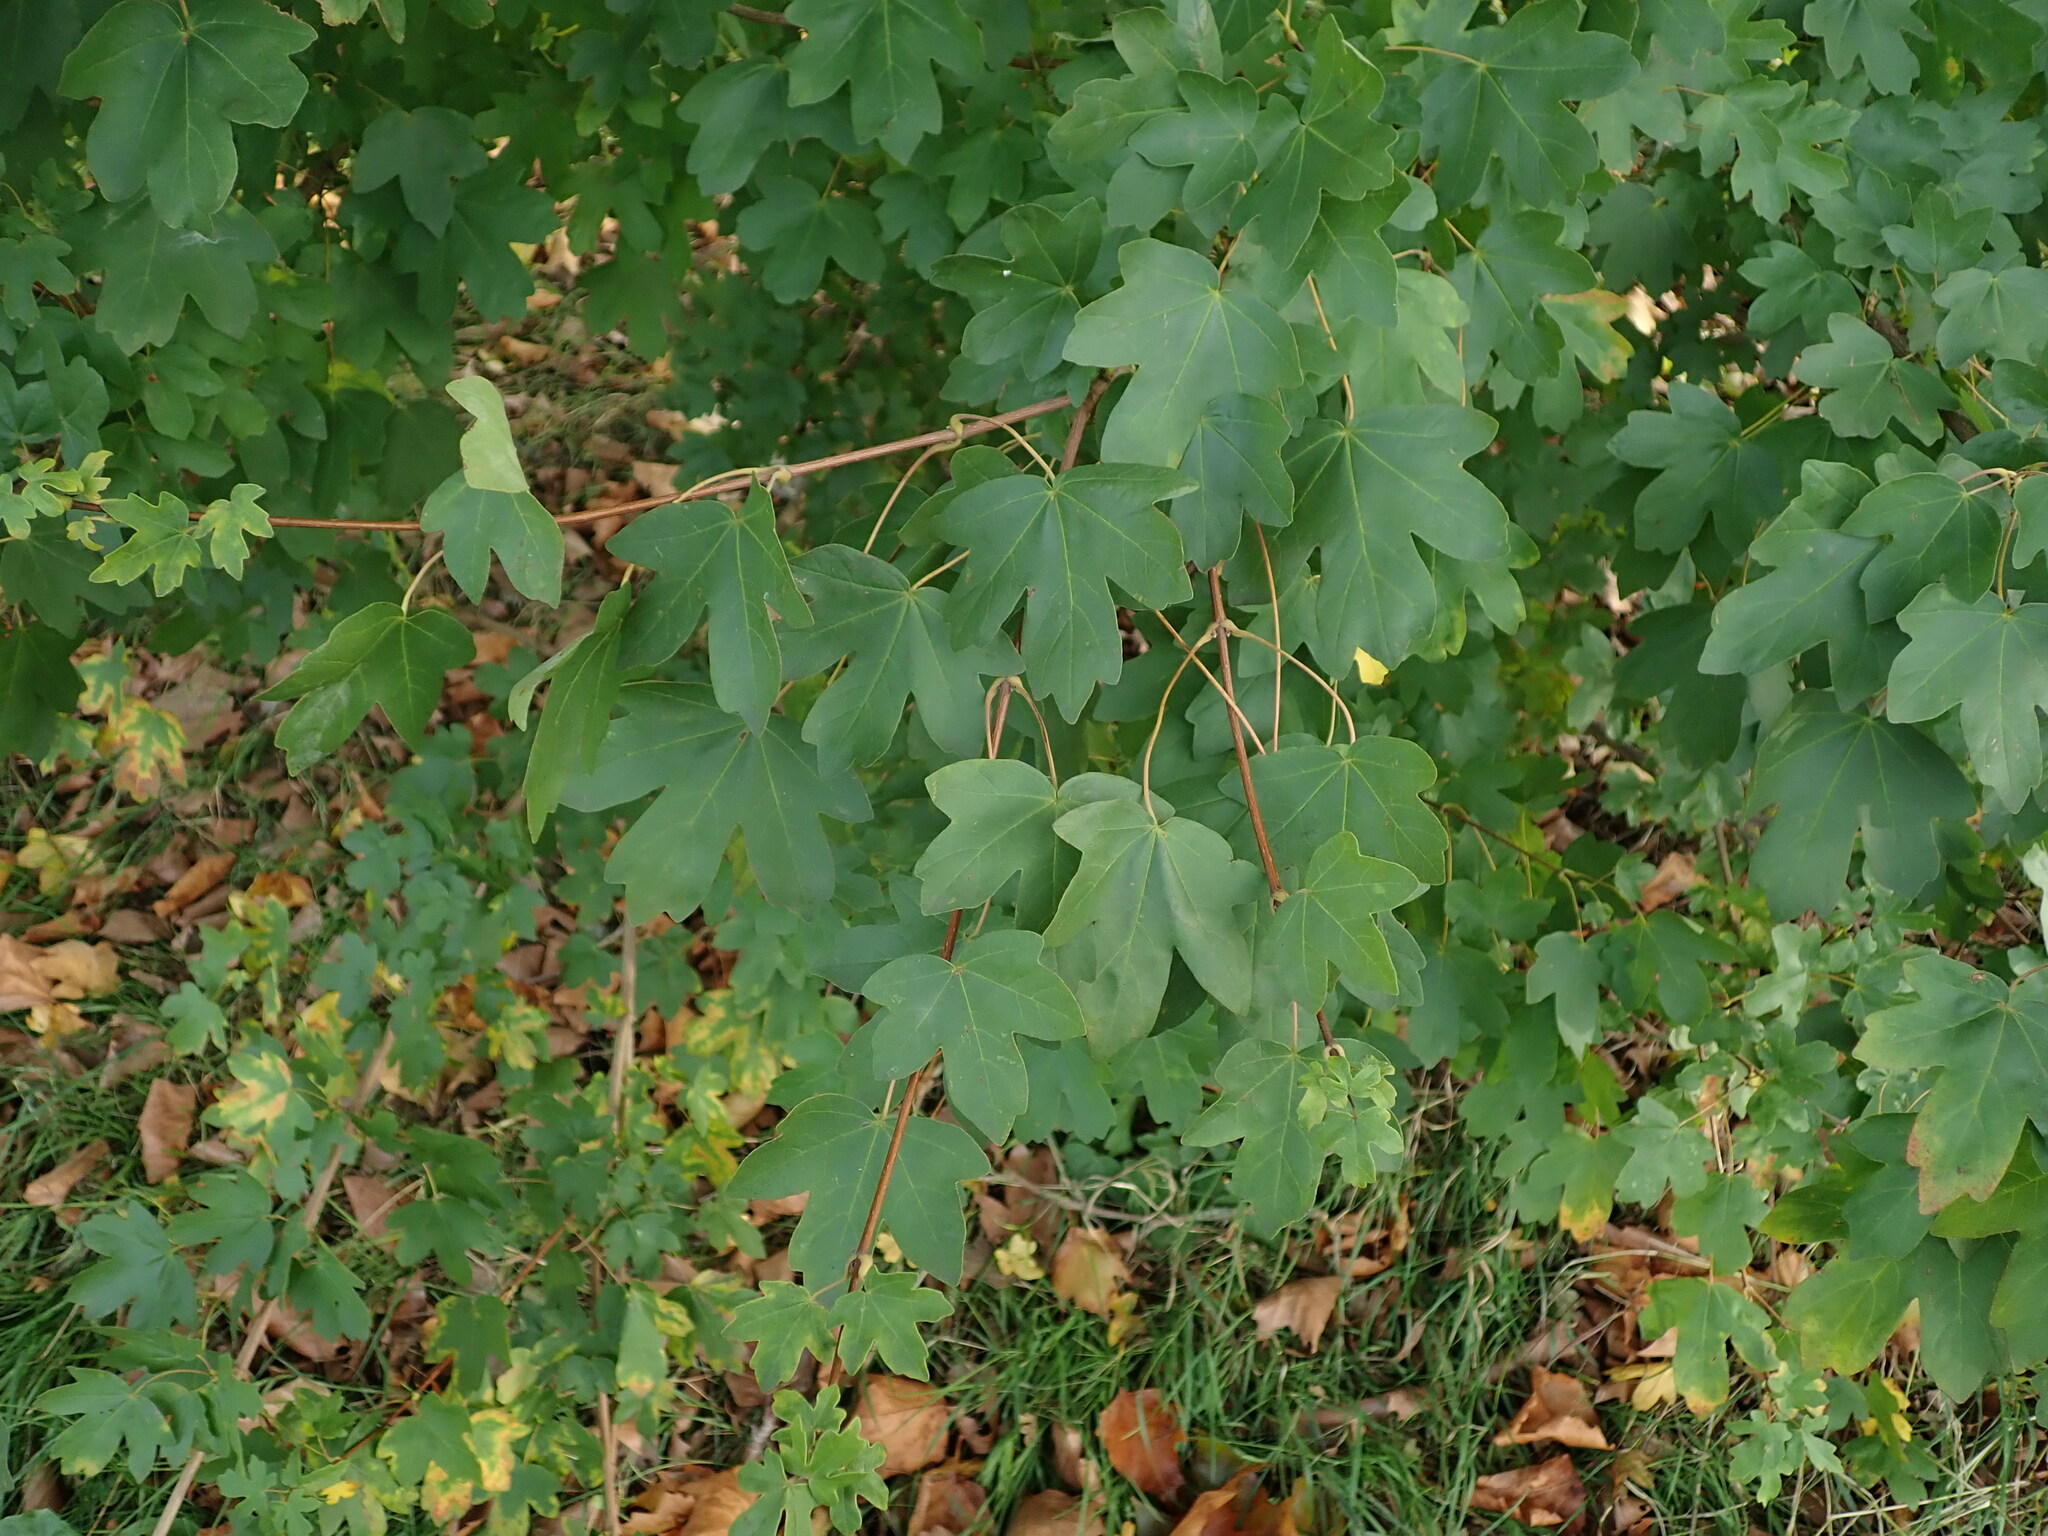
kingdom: Plantae
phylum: Tracheophyta
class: Magnoliopsida
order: Sapindales
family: Sapindaceae
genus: Acer
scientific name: Acer campestre
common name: Field maple
